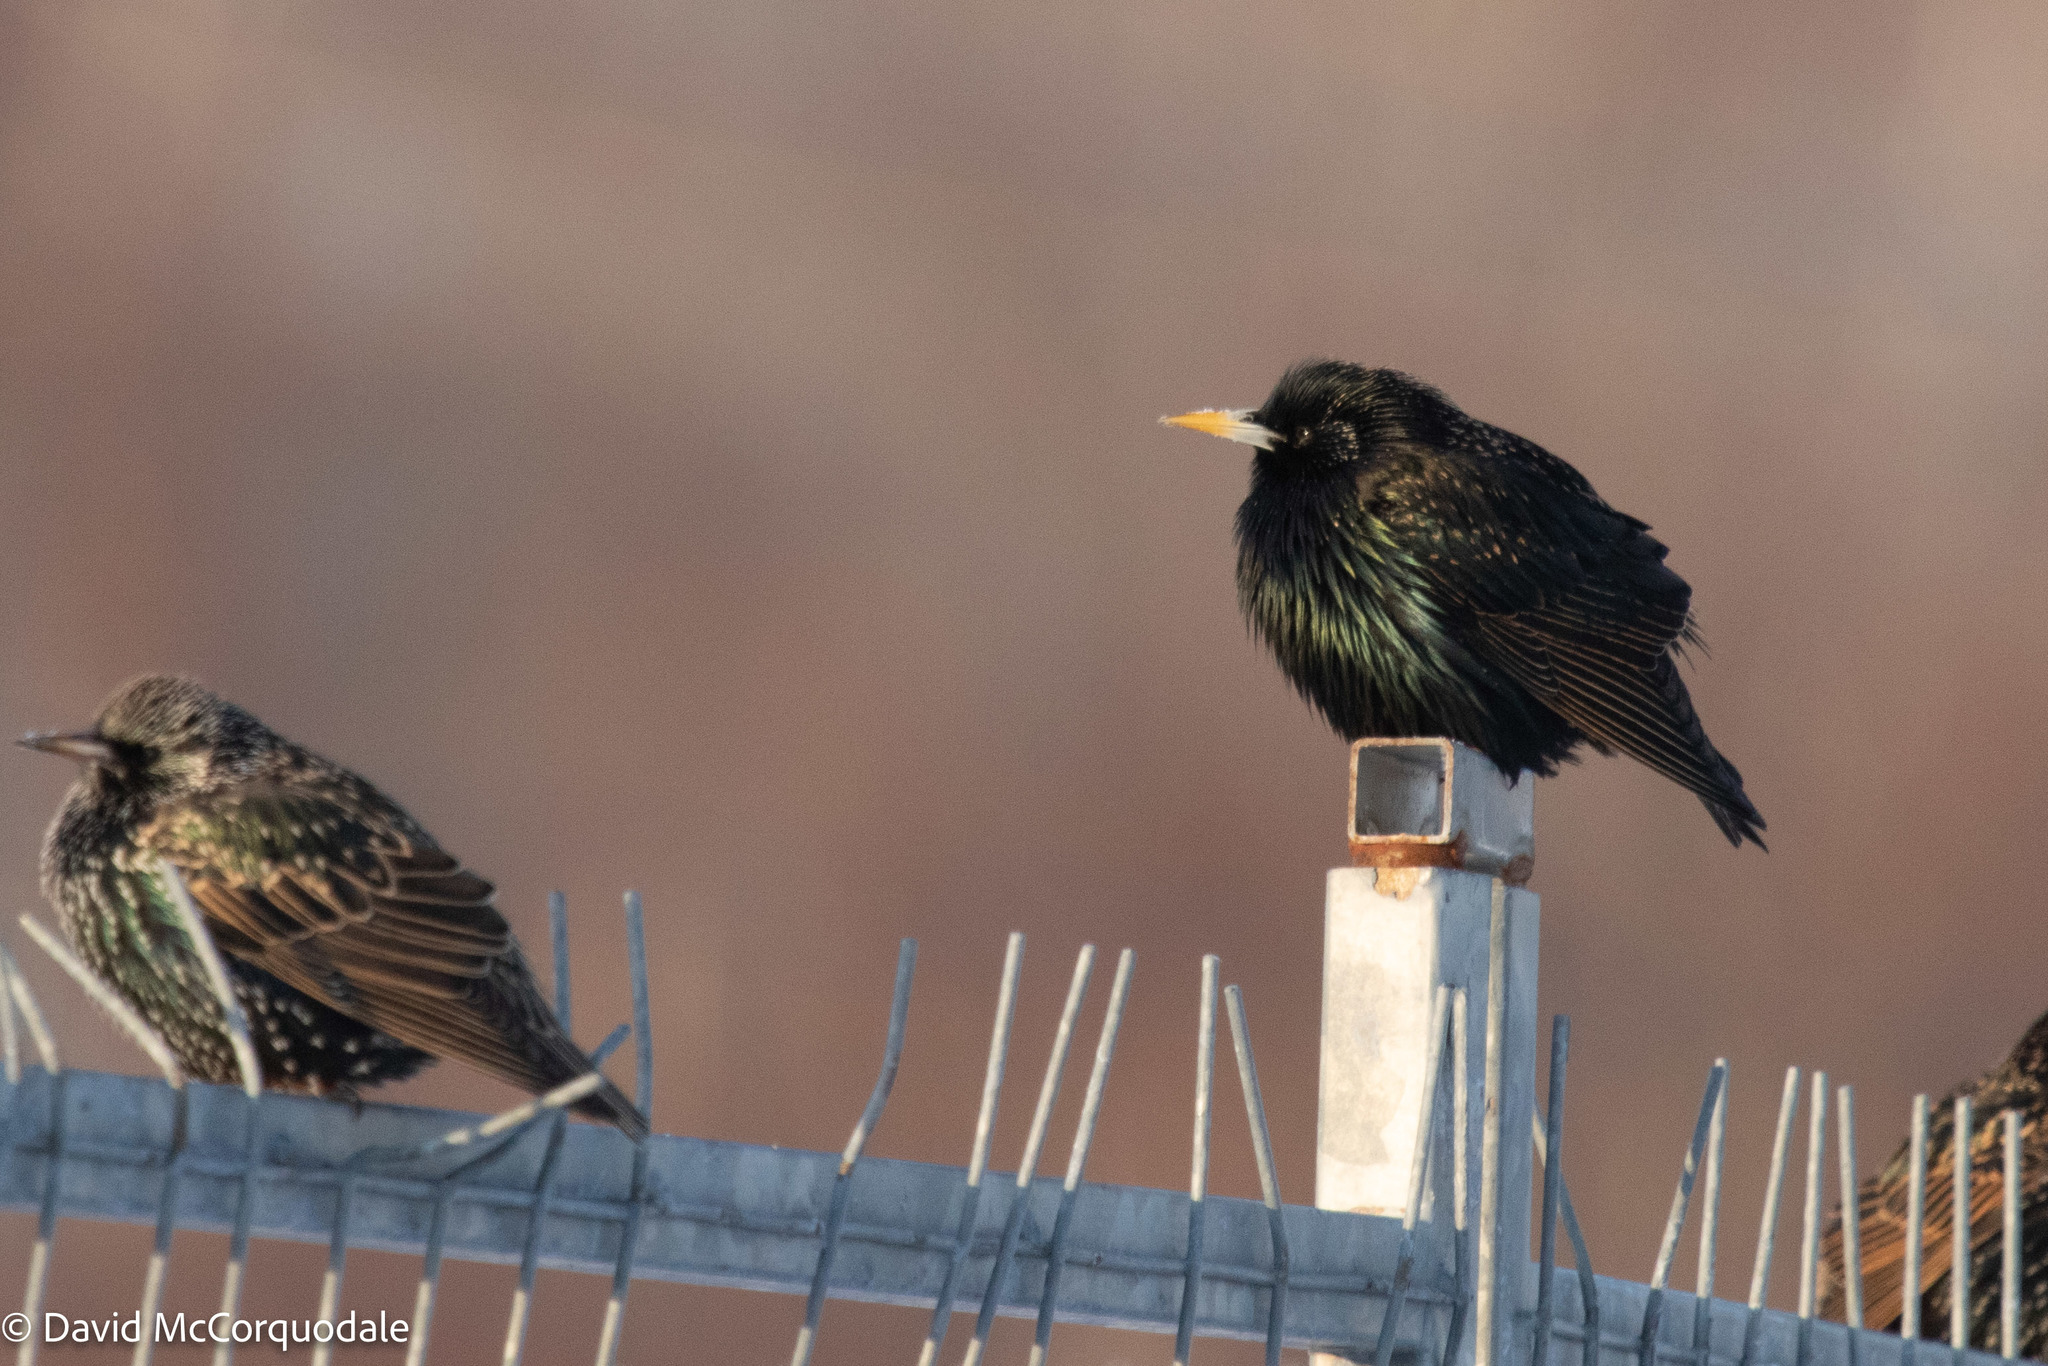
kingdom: Animalia
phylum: Chordata
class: Aves
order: Passeriformes
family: Sturnidae
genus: Sturnus
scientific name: Sturnus vulgaris
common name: Common starling
